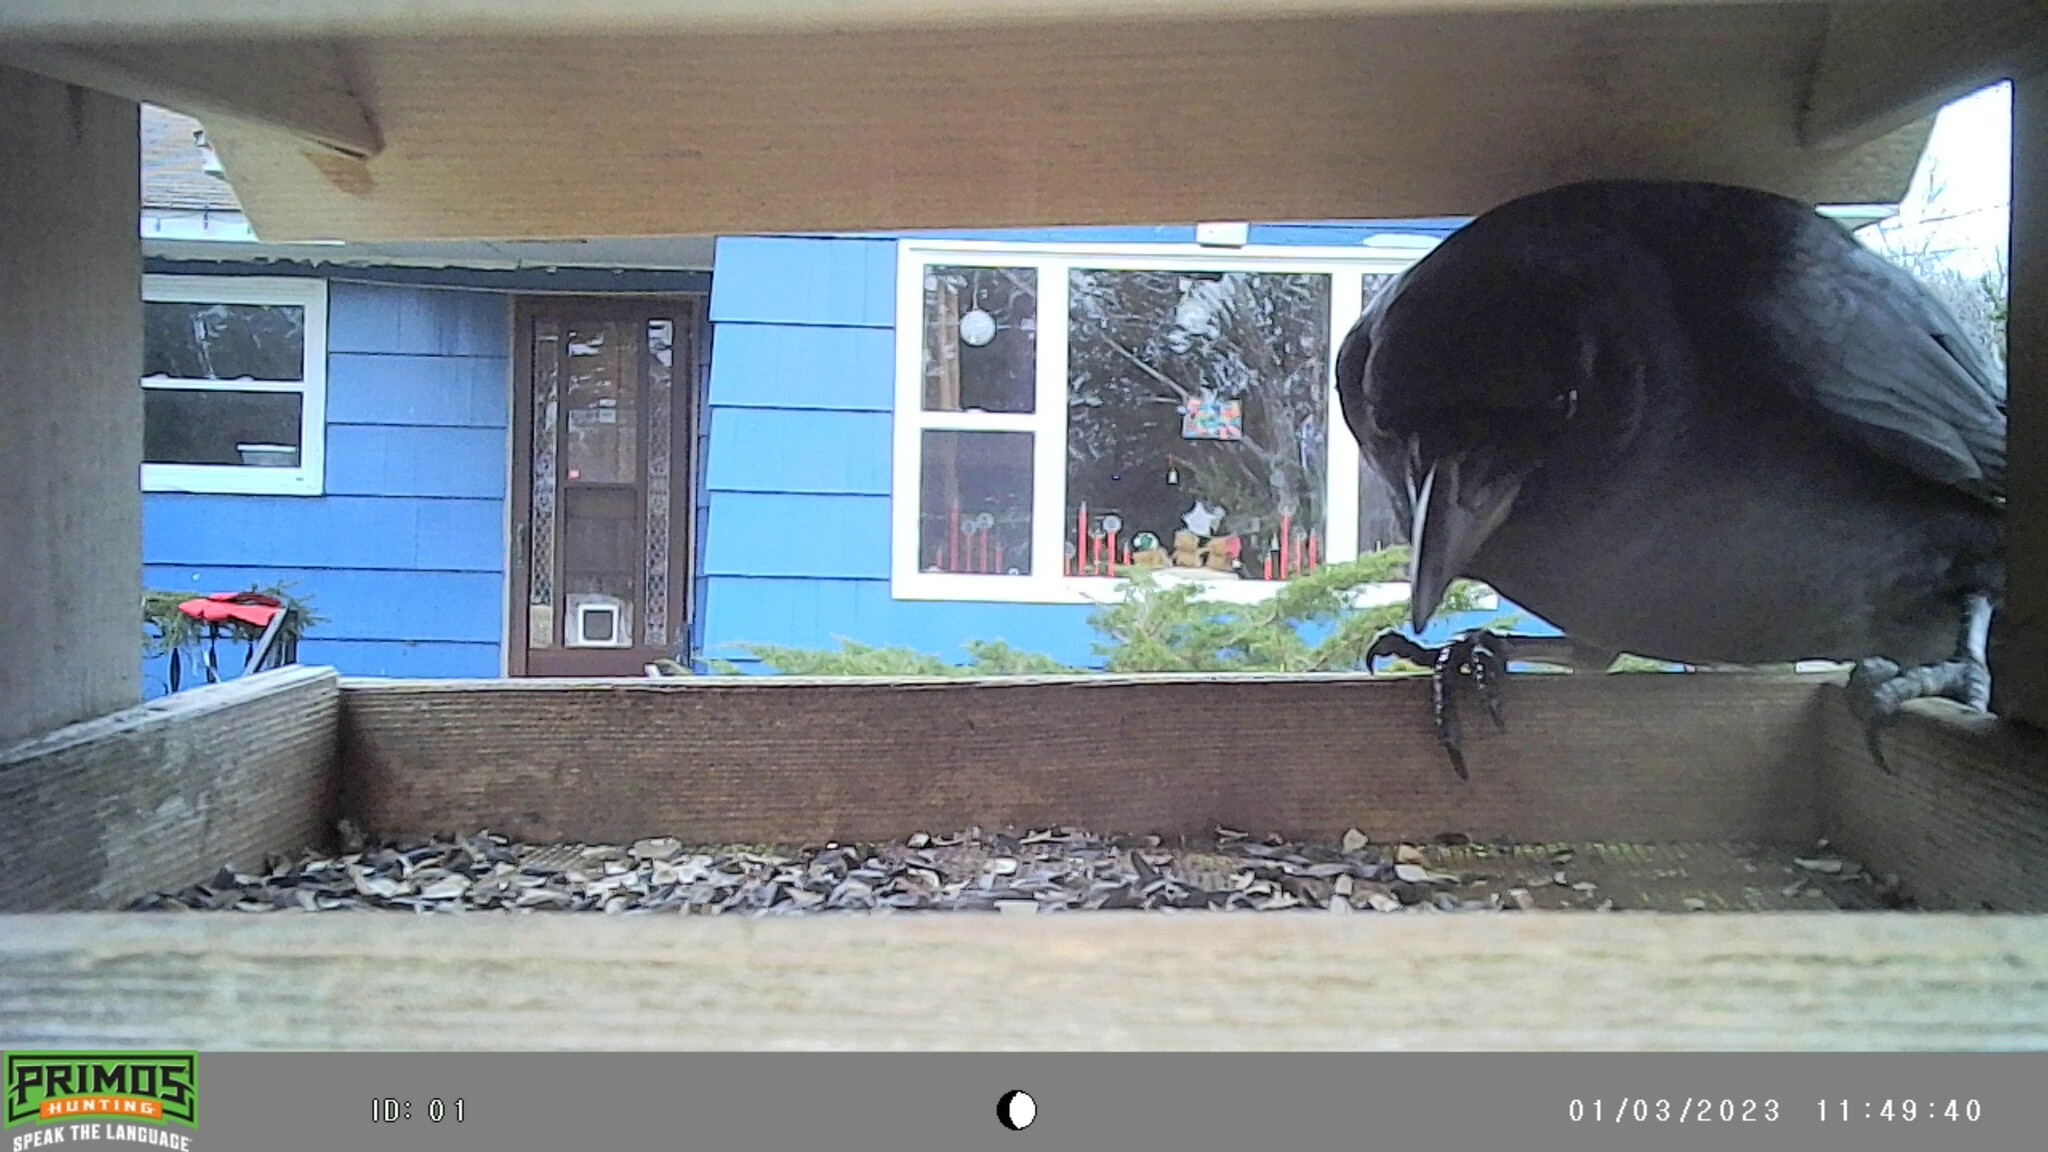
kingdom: Animalia
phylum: Chordata
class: Aves
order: Passeriformes
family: Corvidae
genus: Corvus
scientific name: Corvus brachyrhynchos
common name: American crow
